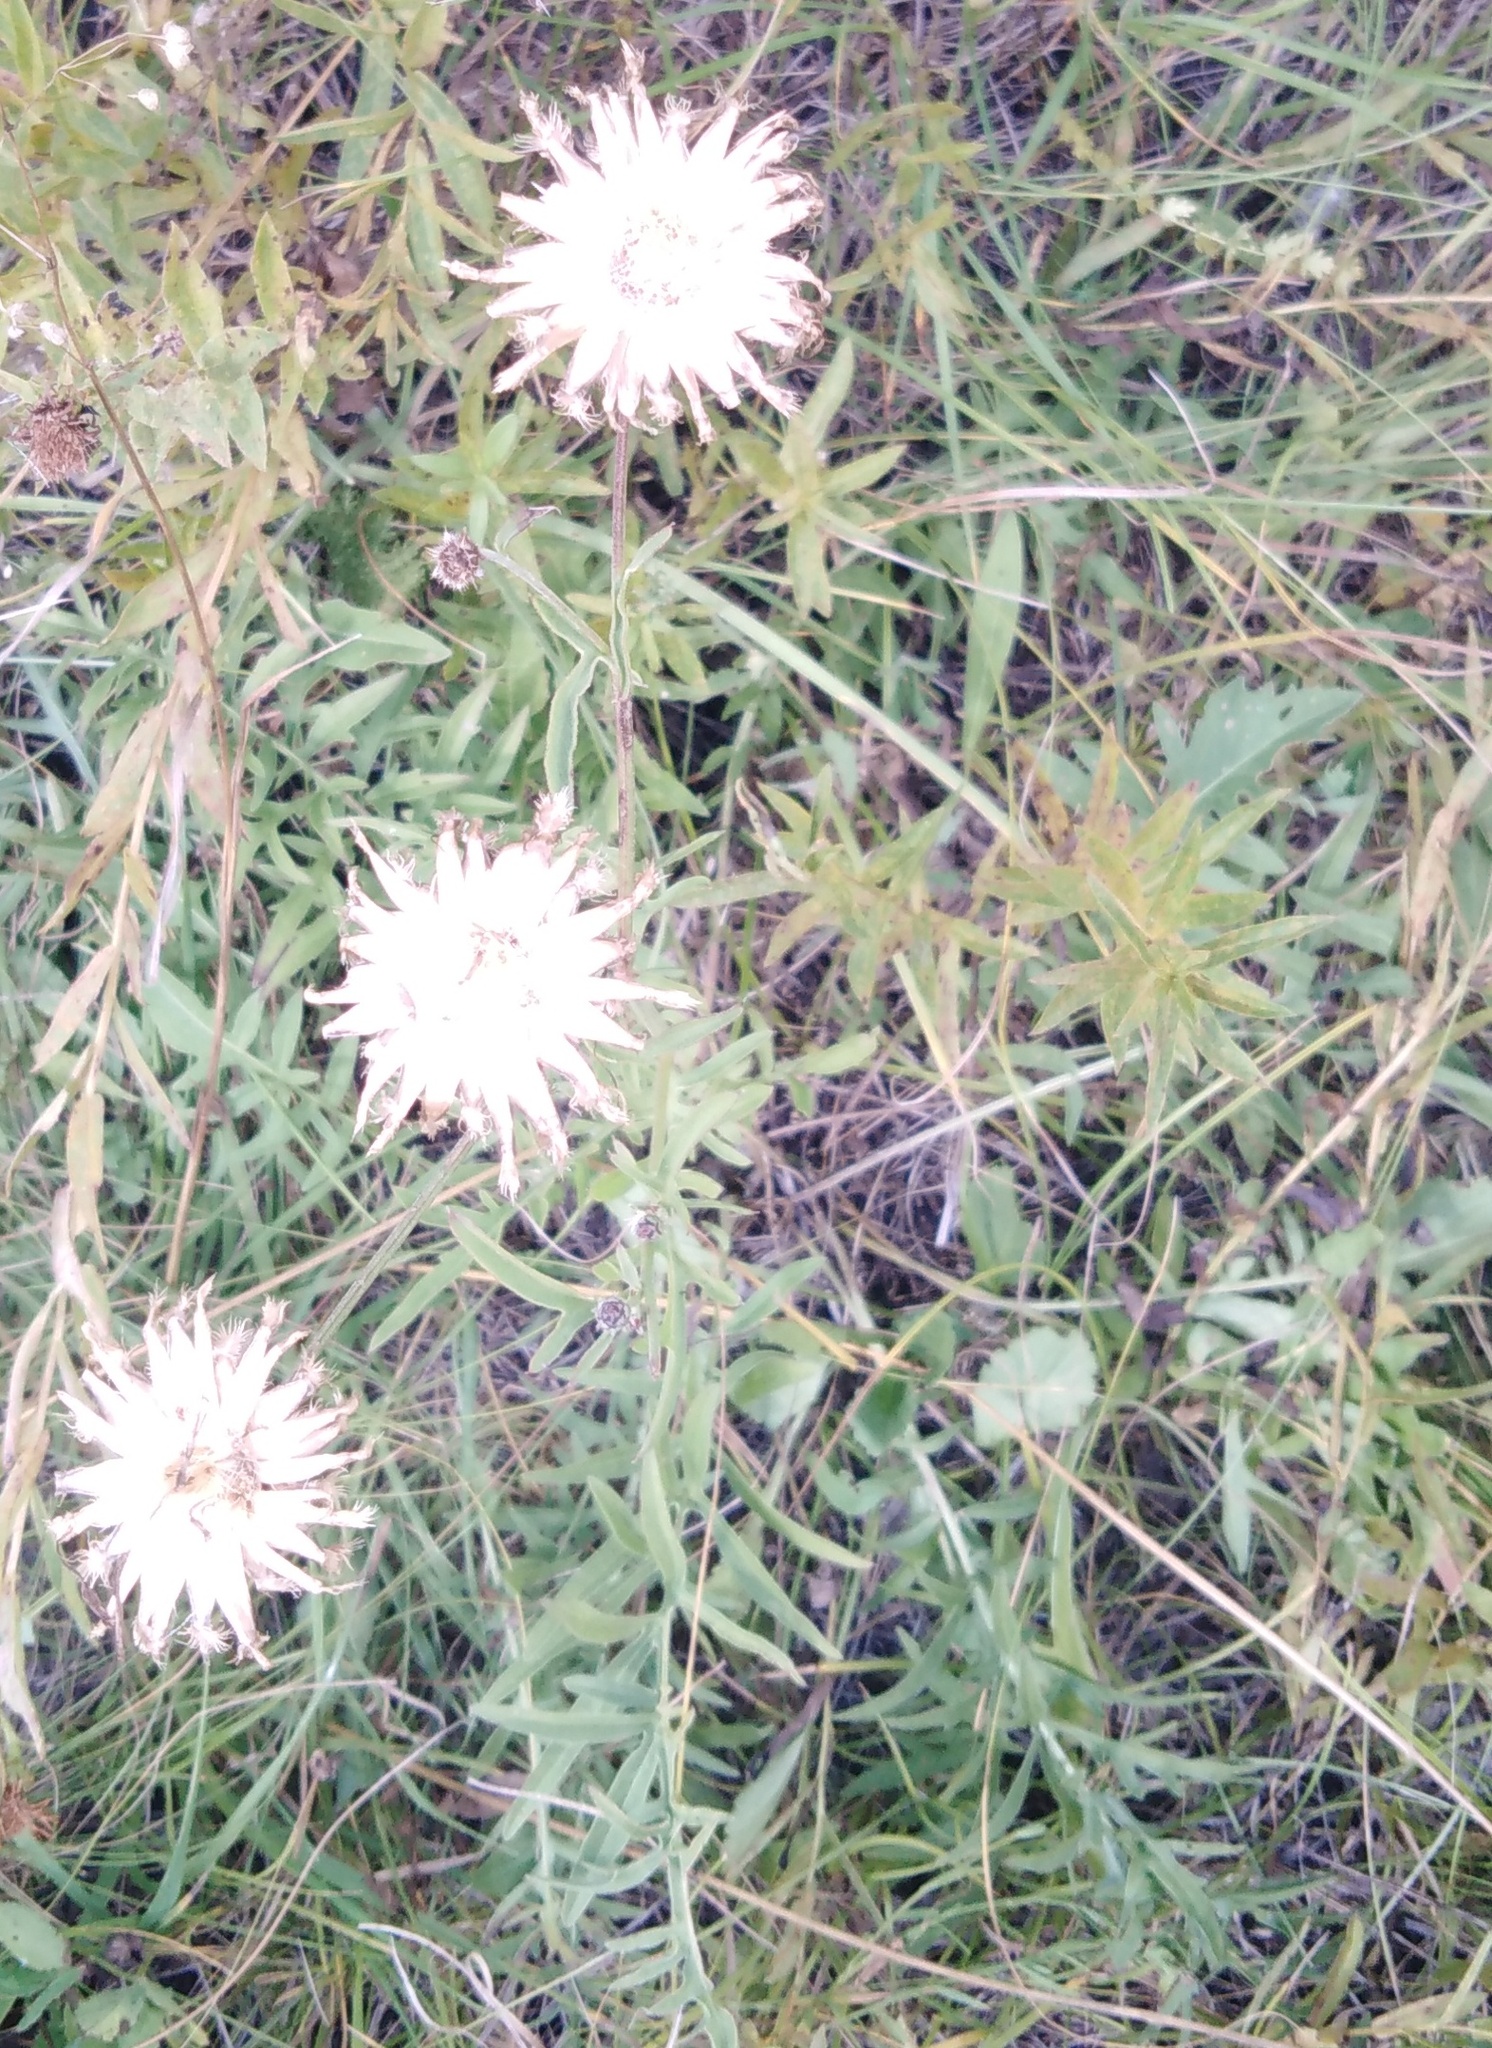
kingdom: Plantae
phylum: Tracheophyta
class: Magnoliopsida
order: Asterales
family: Asteraceae
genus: Centaurea
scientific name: Centaurea scabiosa
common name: Greater knapweed
